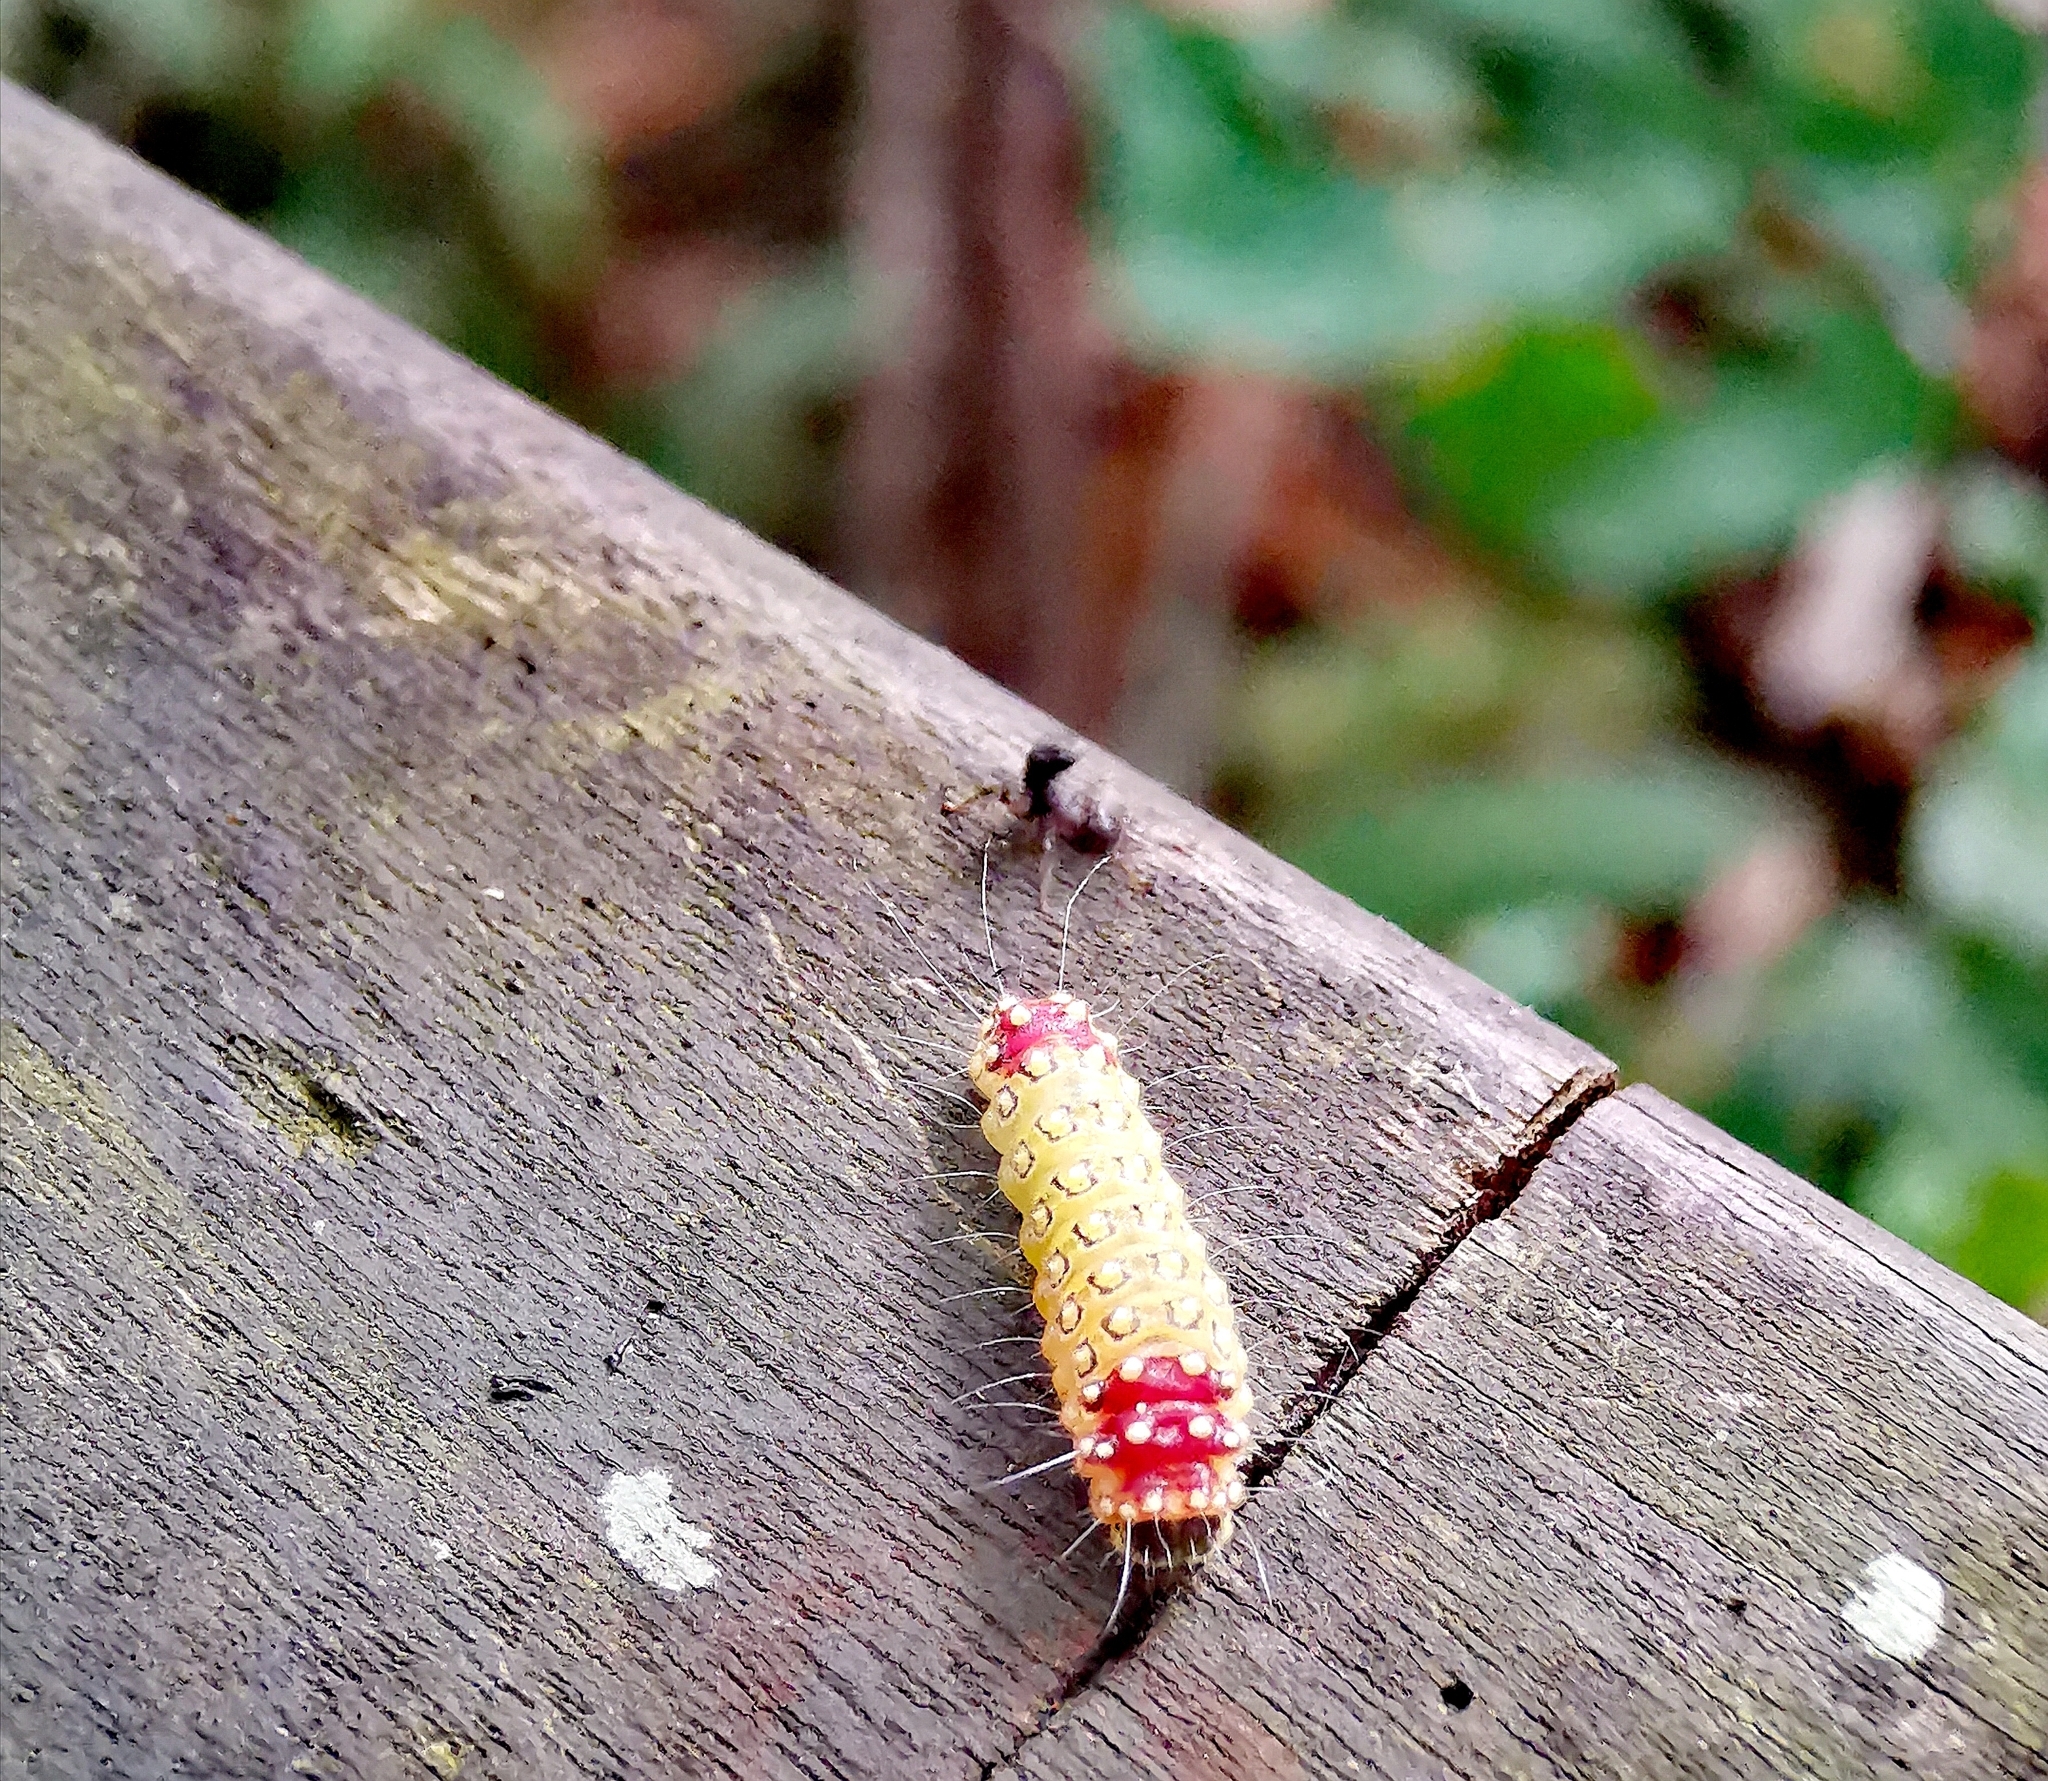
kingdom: Animalia
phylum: Arthropoda
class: Insecta
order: Lepidoptera
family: Zygaenidae
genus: Cyclosia
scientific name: Cyclosia sordidus
